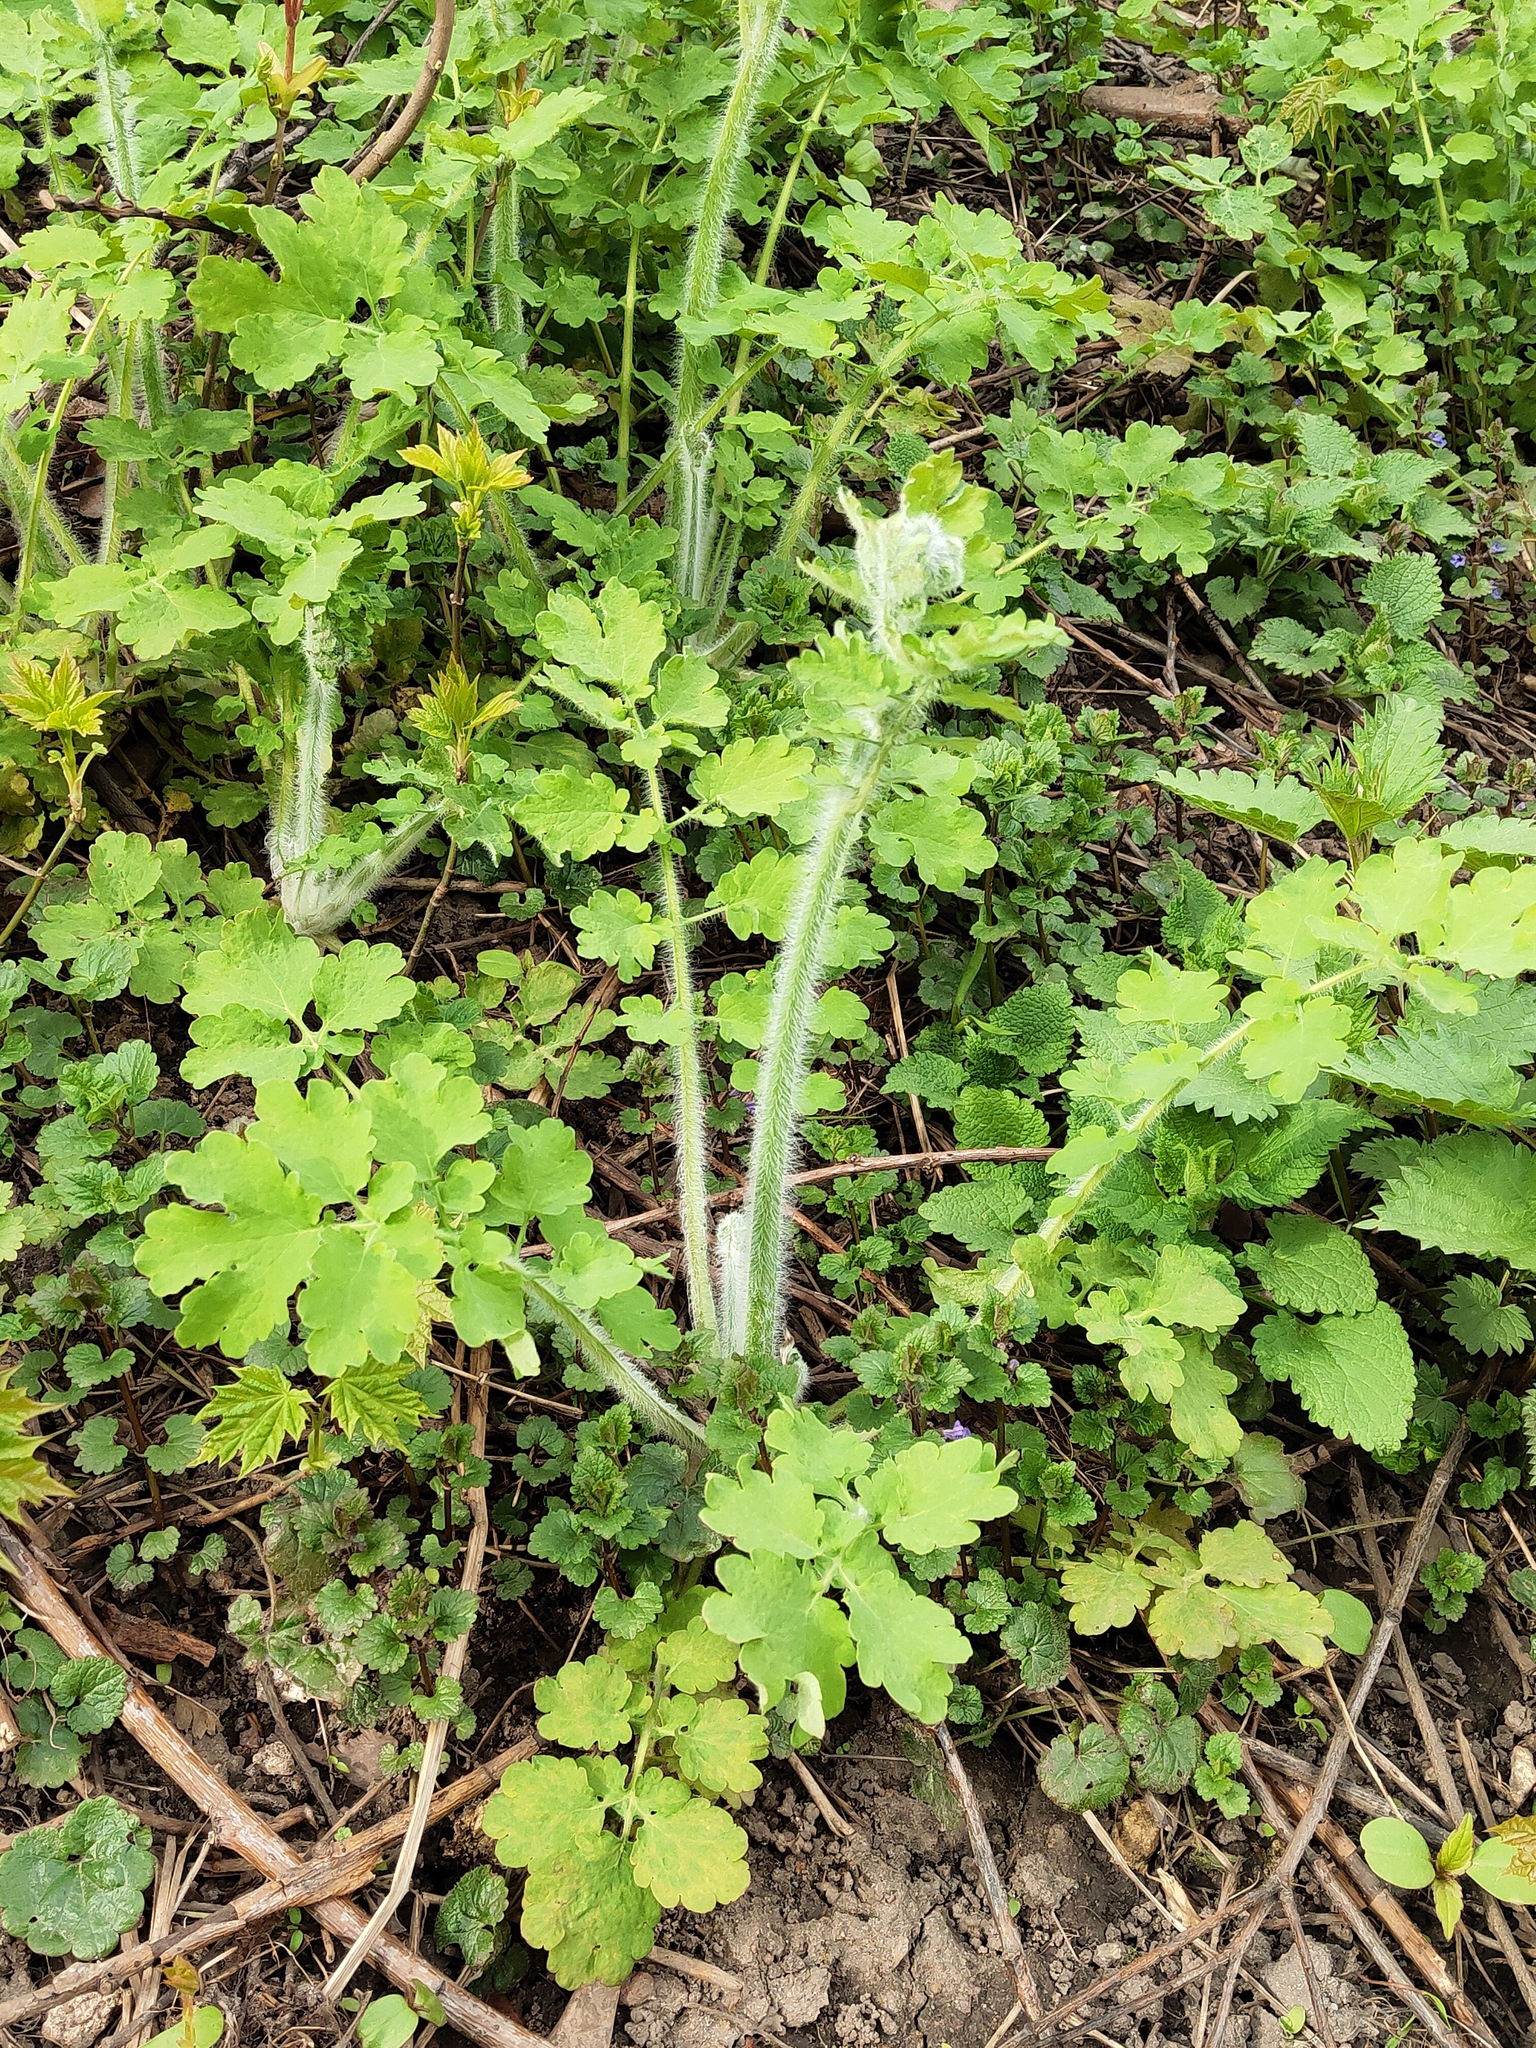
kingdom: Plantae
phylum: Tracheophyta
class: Magnoliopsida
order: Ranunculales
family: Papaveraceae
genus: Chelidonium
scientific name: Chelidonium majus
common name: Greater celandine
